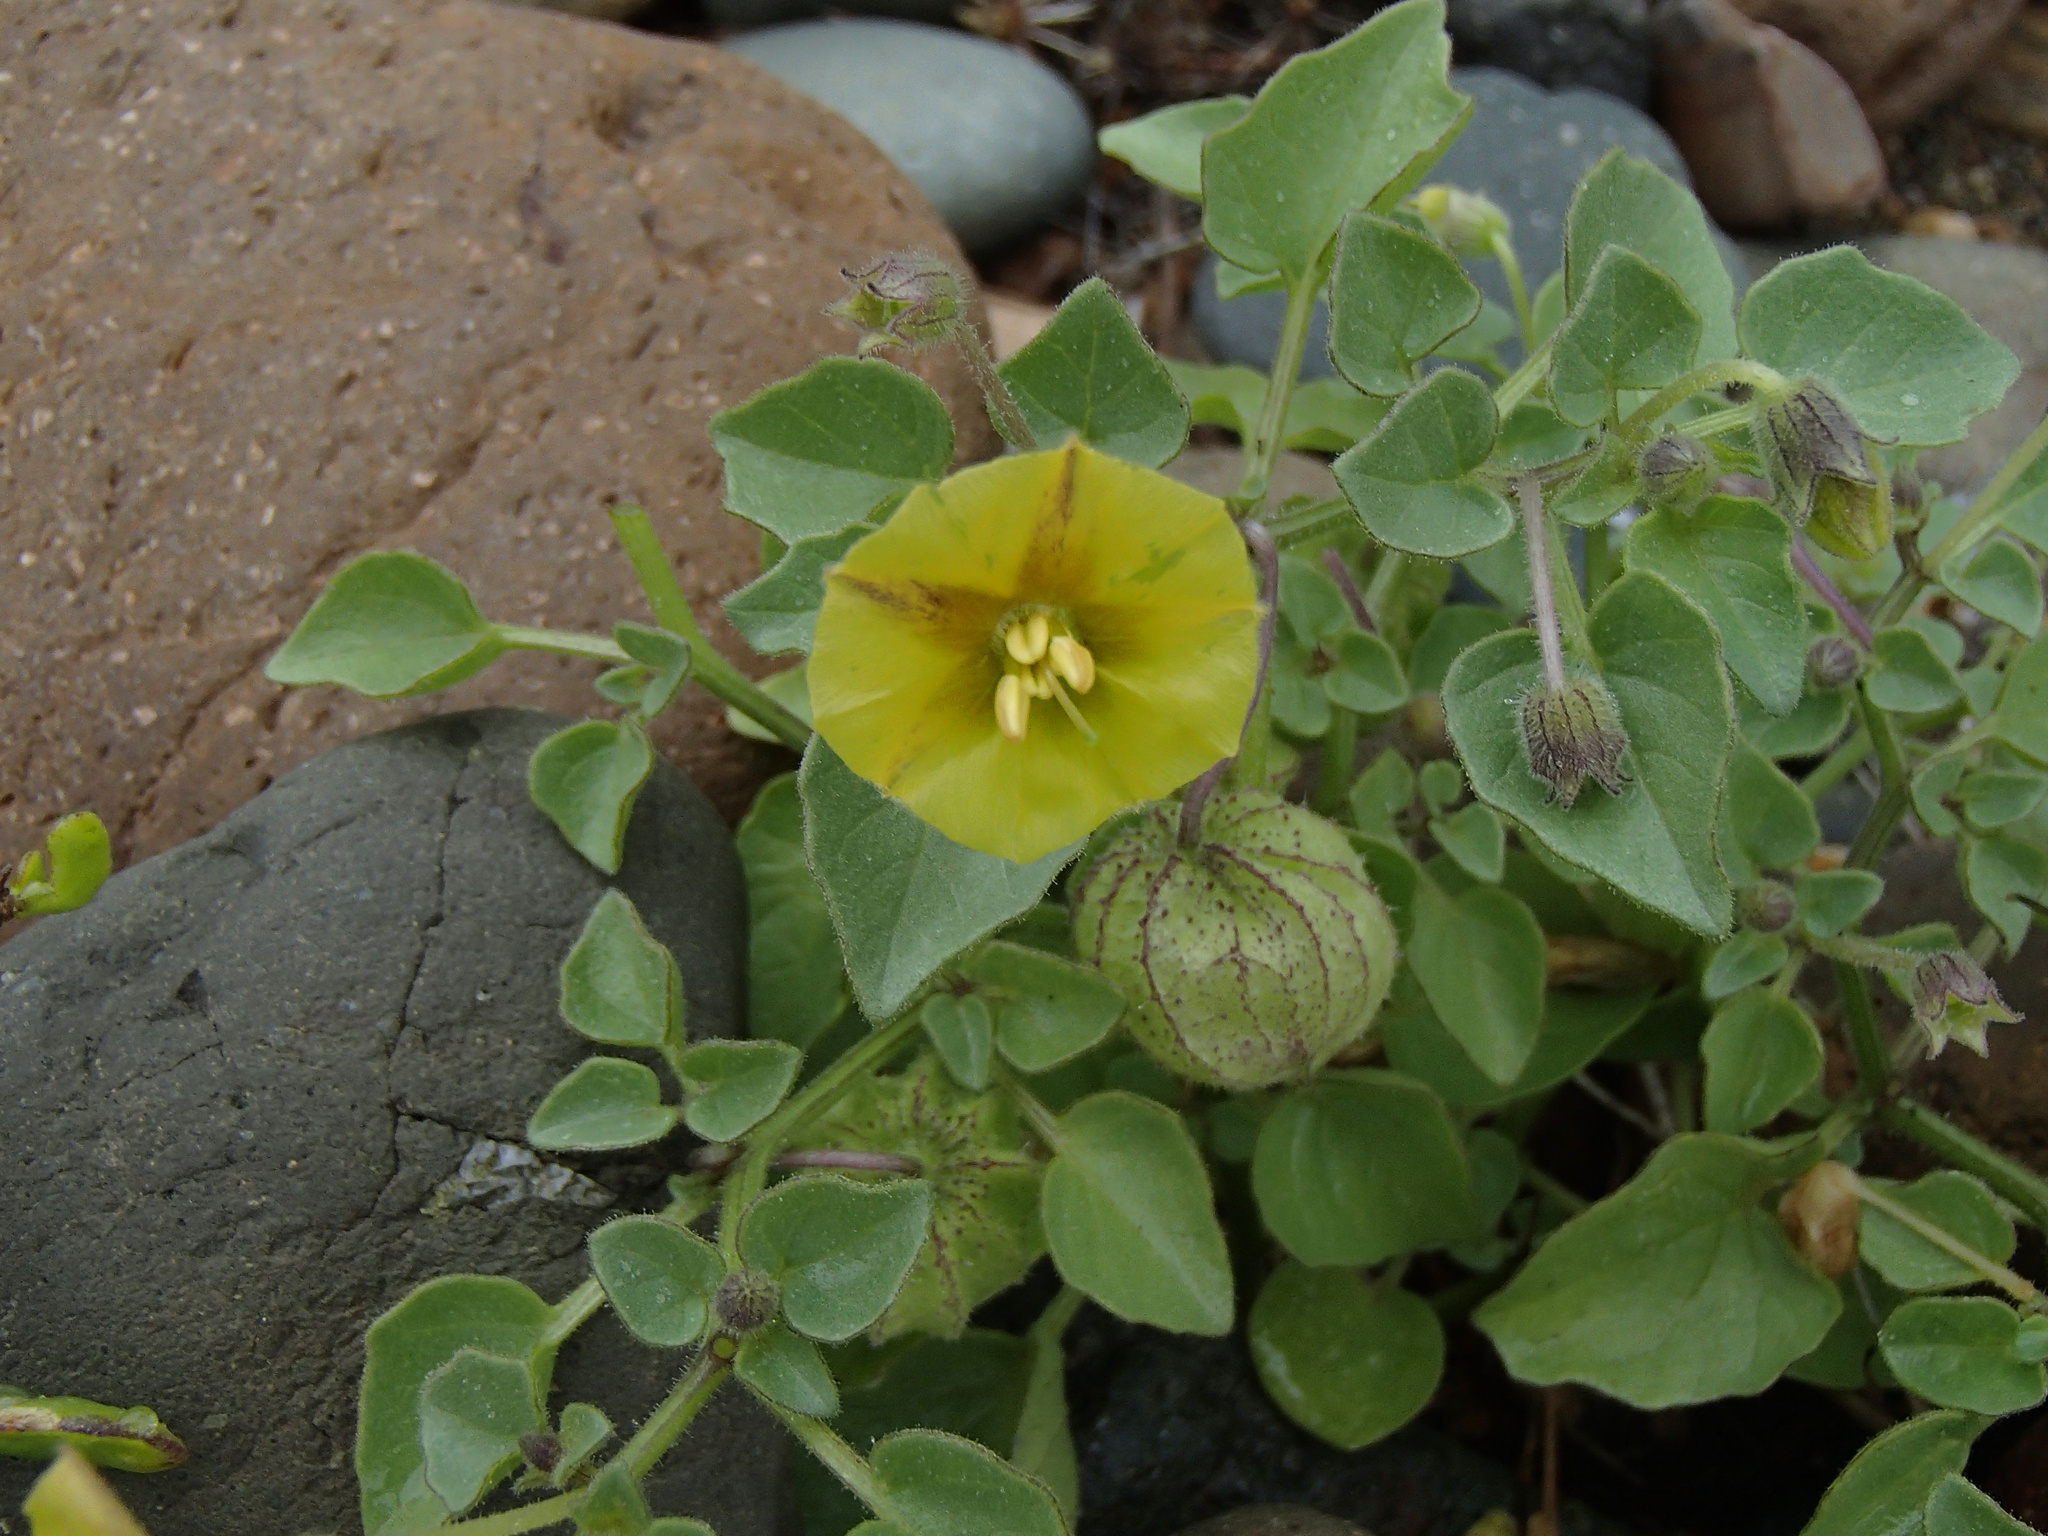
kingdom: Plantae
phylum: Tracheophyta
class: Magnoliopsida
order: Solanales
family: Solanaceae
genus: Physalis
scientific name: Physalis crassifolia
